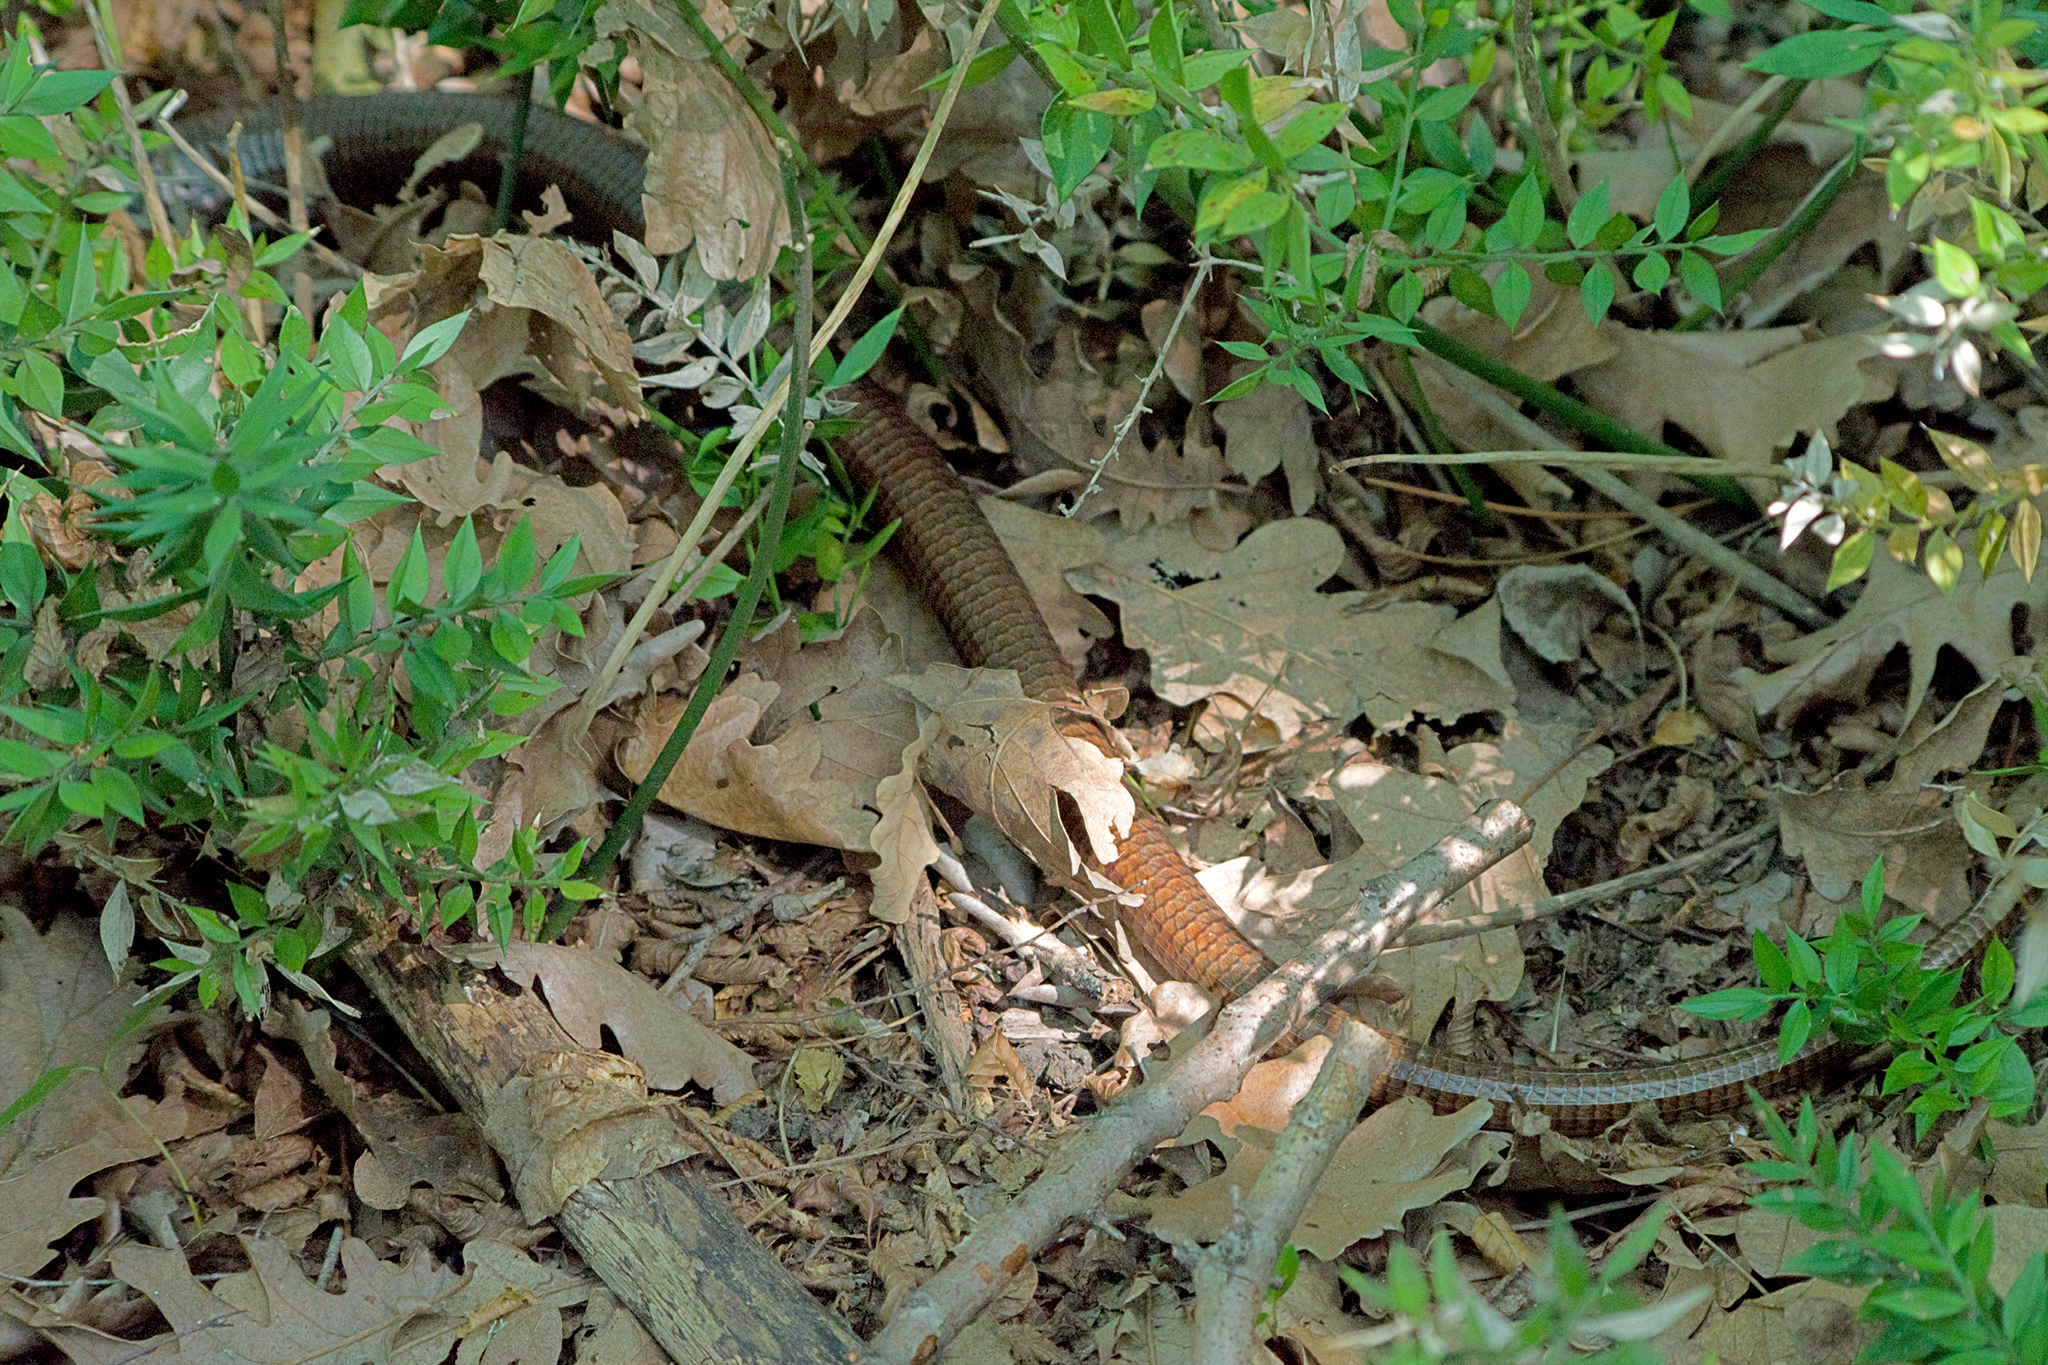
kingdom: Animalia
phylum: Chordata
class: Squamata
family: Anguidae
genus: Pseudopus
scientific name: Pseudopus apodus
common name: European glass lizard
